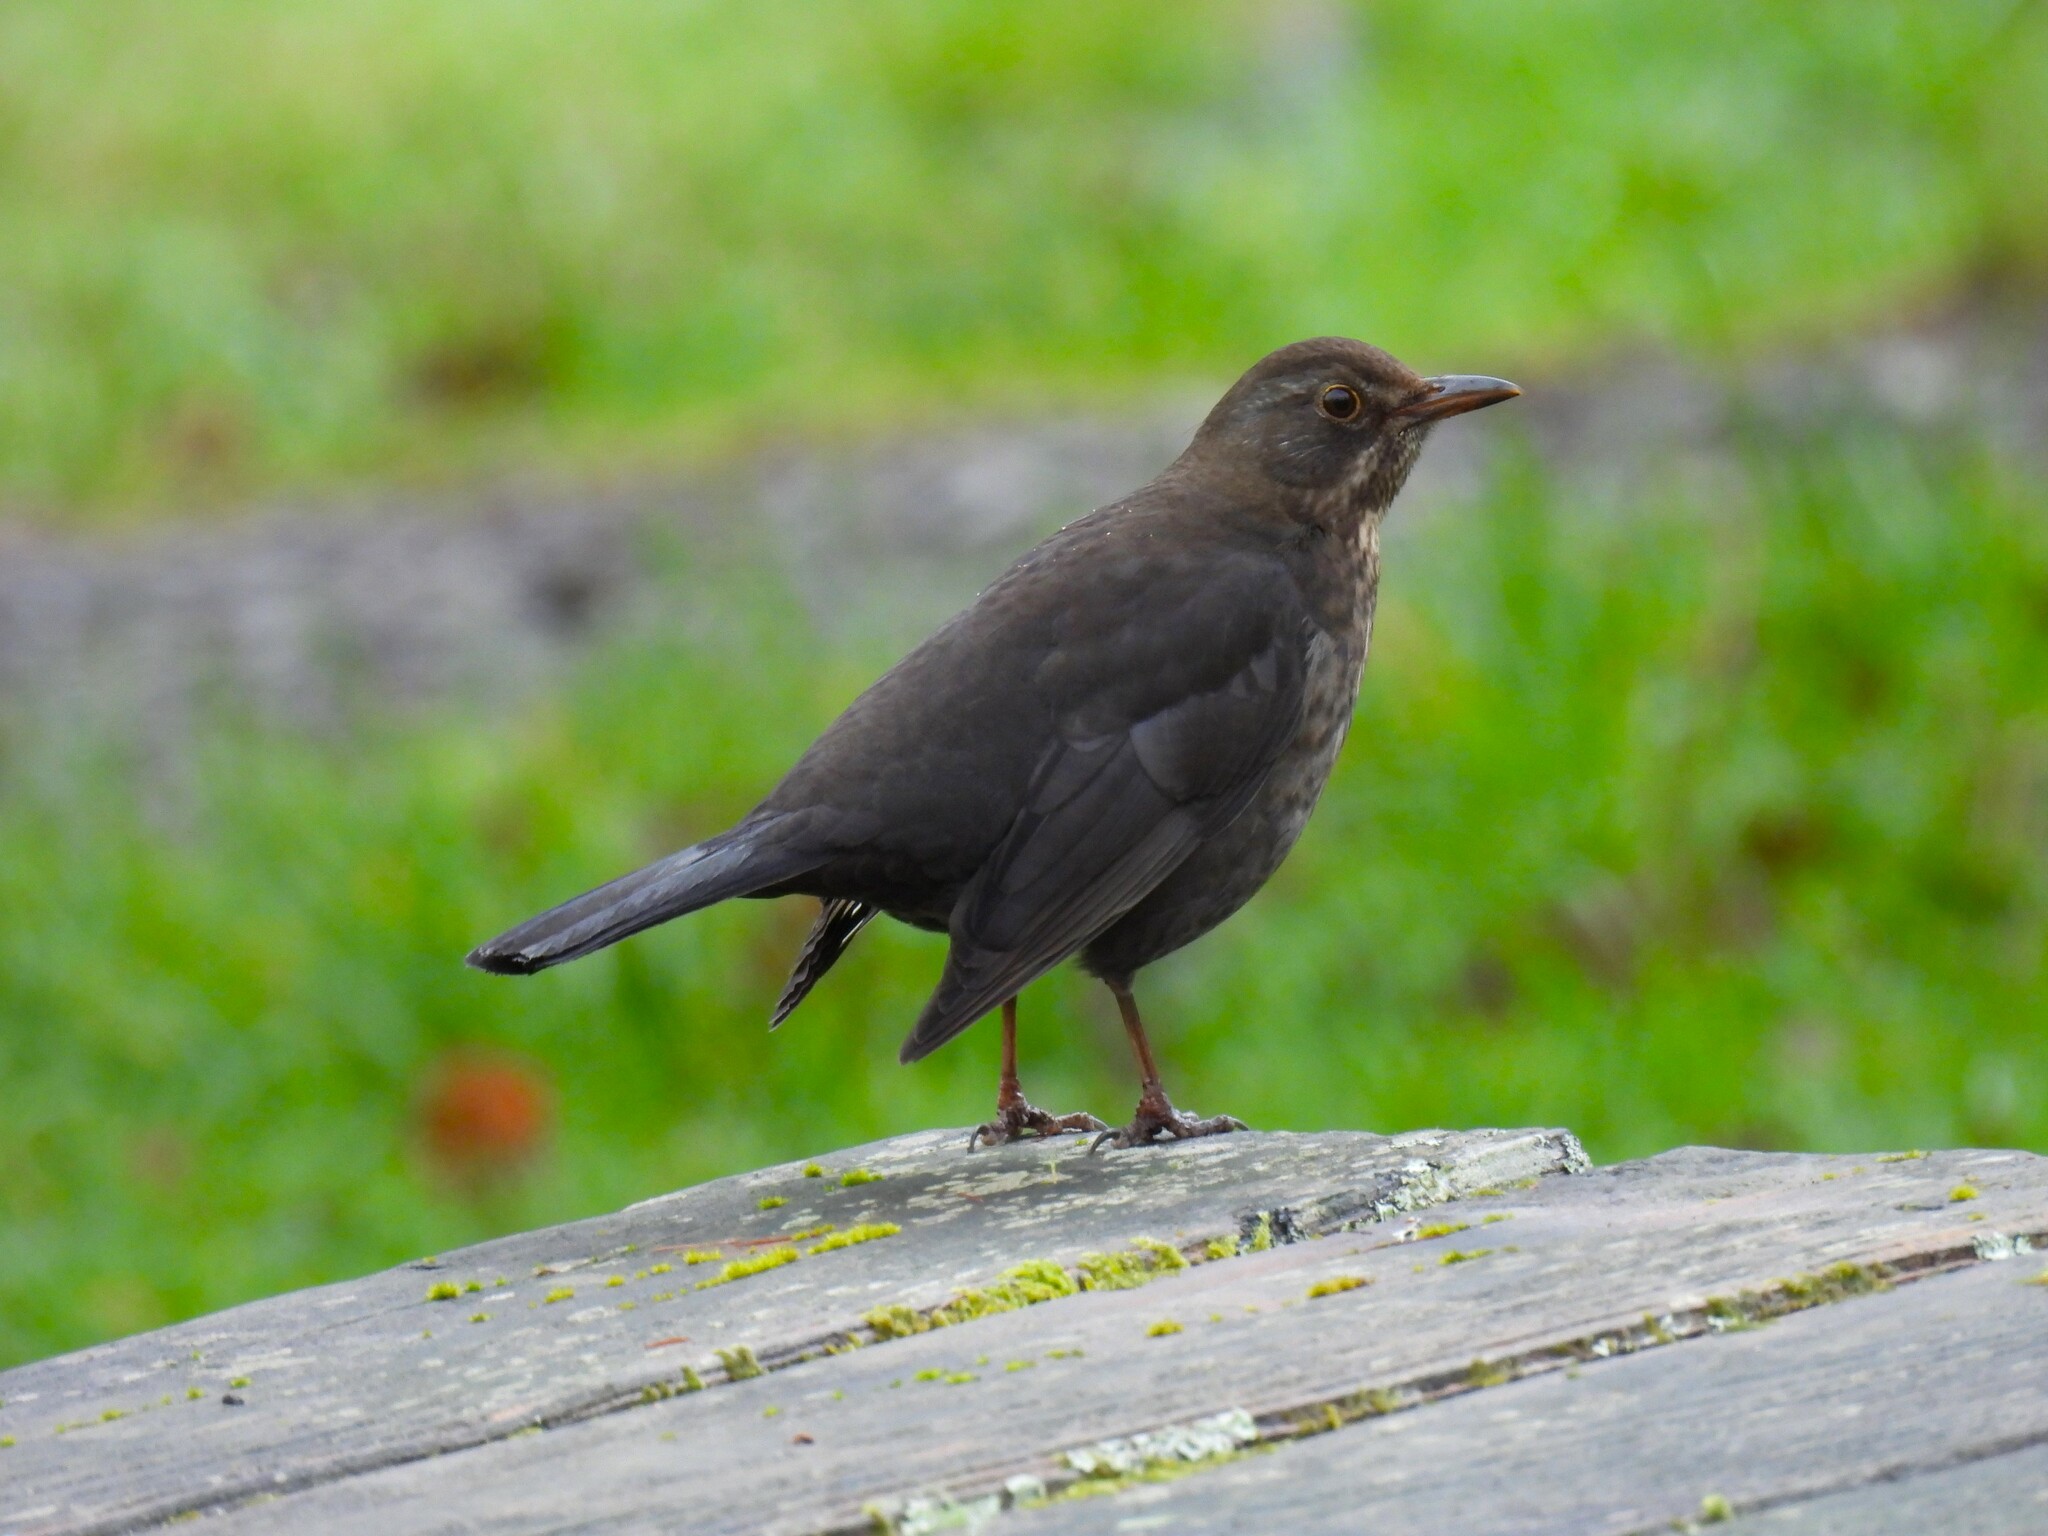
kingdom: Animalia
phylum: Chordata
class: Aves
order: Passeriformes
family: Turdidae
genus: Turdus
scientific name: Turdus merula
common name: Common blackbird
